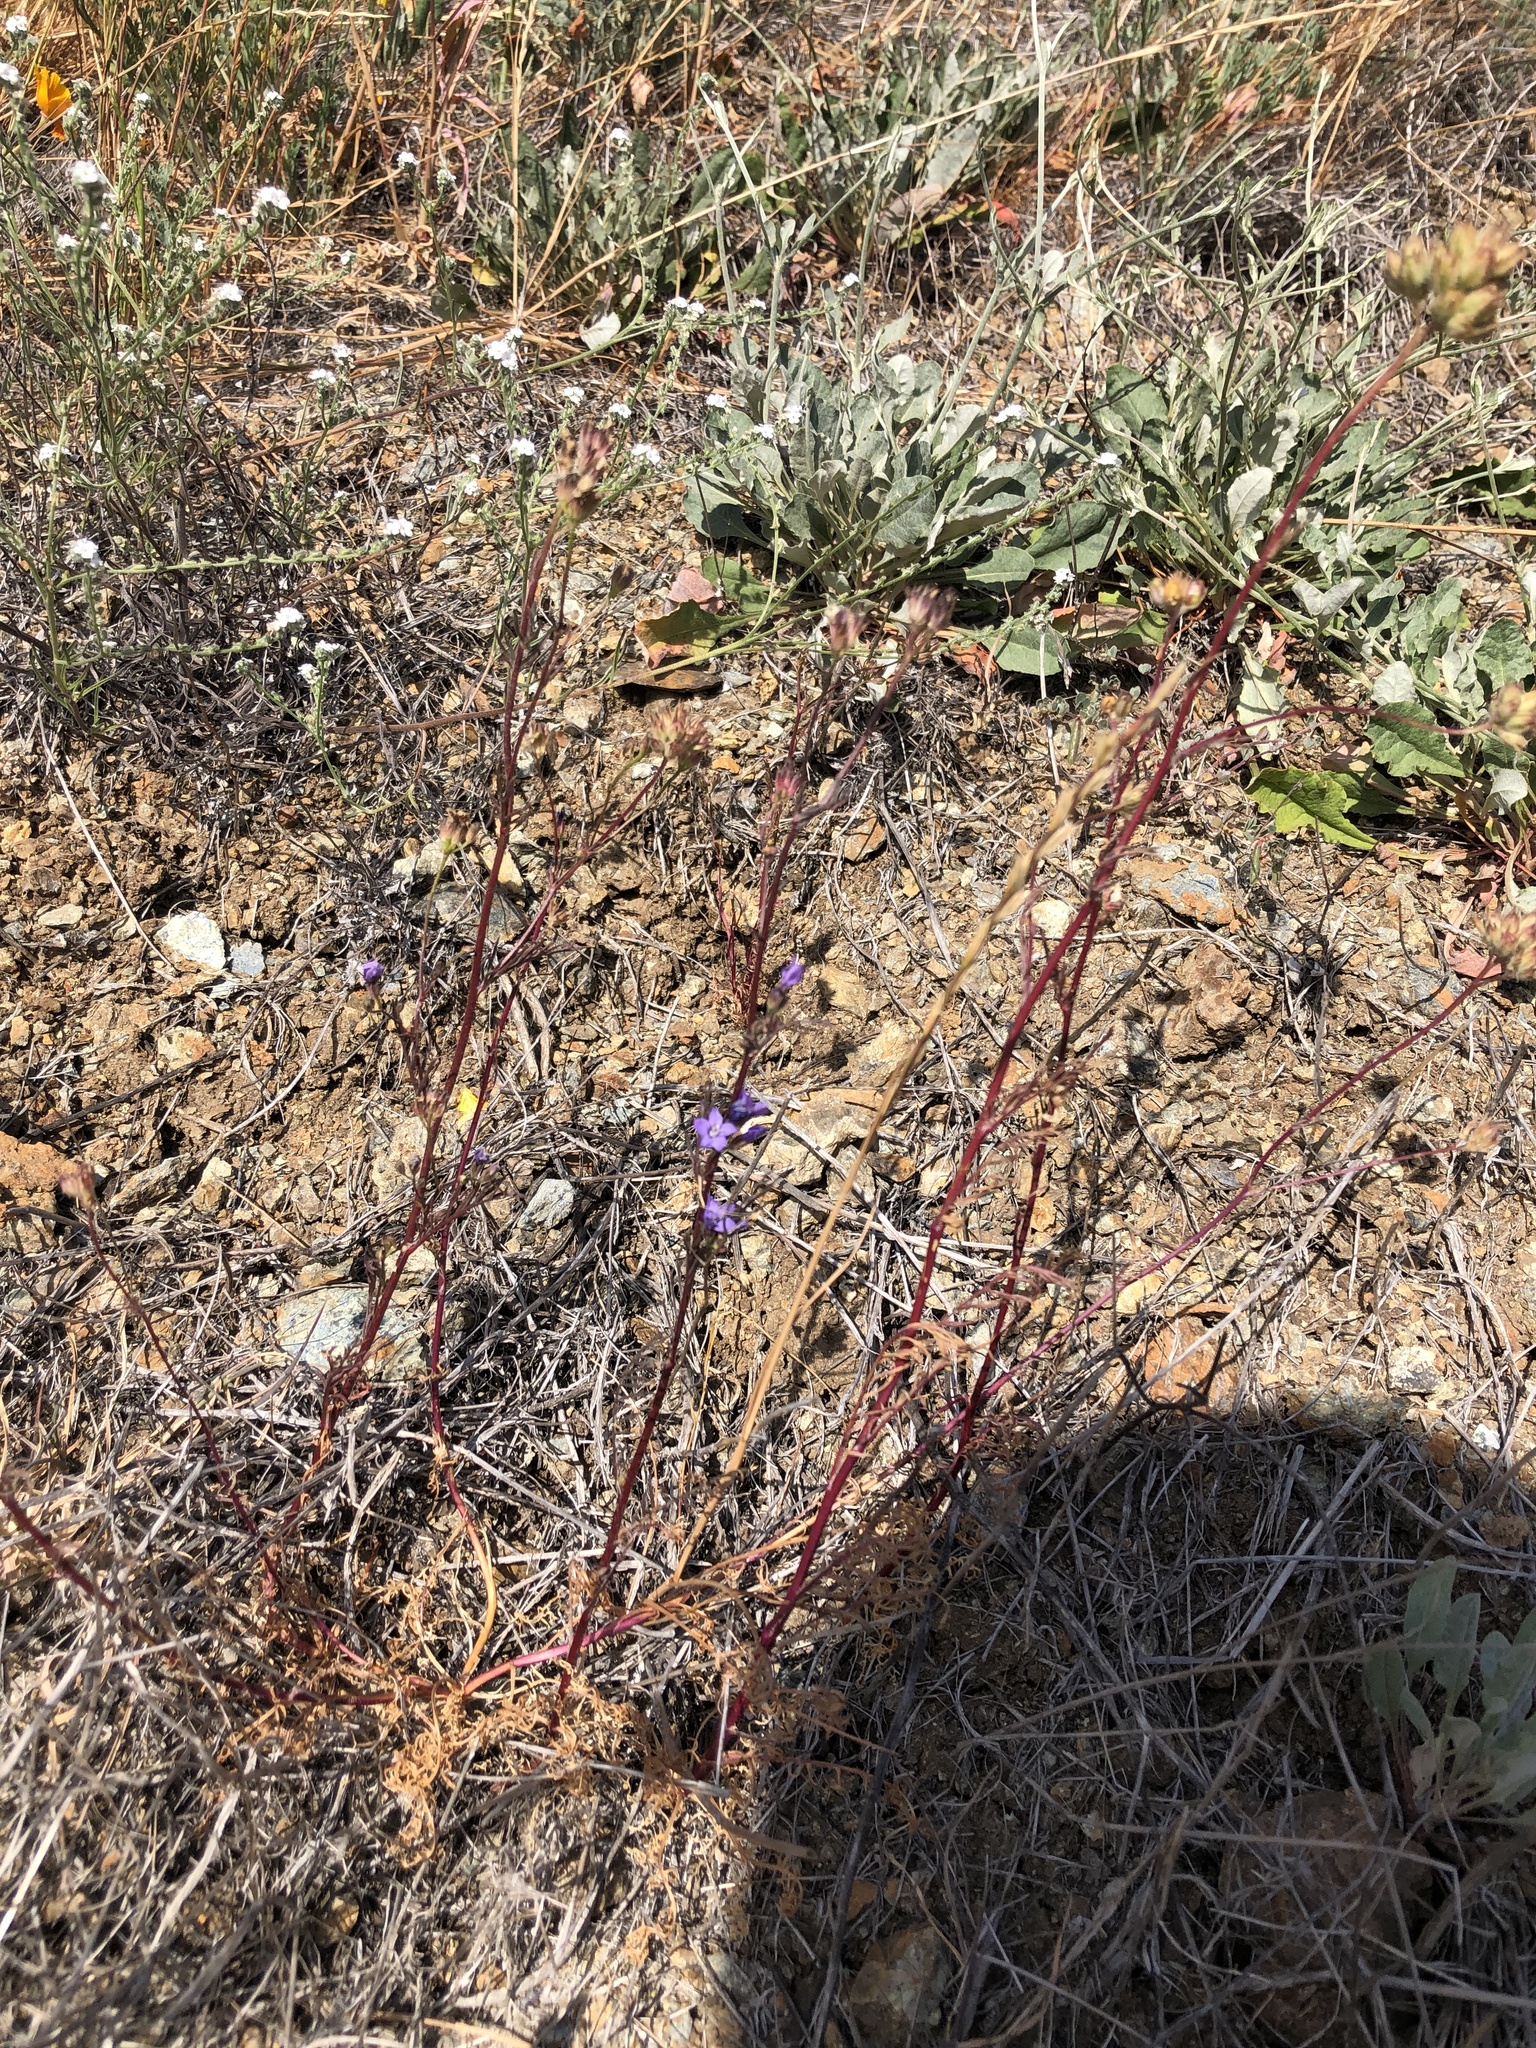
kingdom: Plantae
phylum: Tracheophyta
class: Magnoliopsida
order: Ericales
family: Polemoniaceae
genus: Gilia
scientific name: Gilia achilleifolia
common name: California gily-flower
